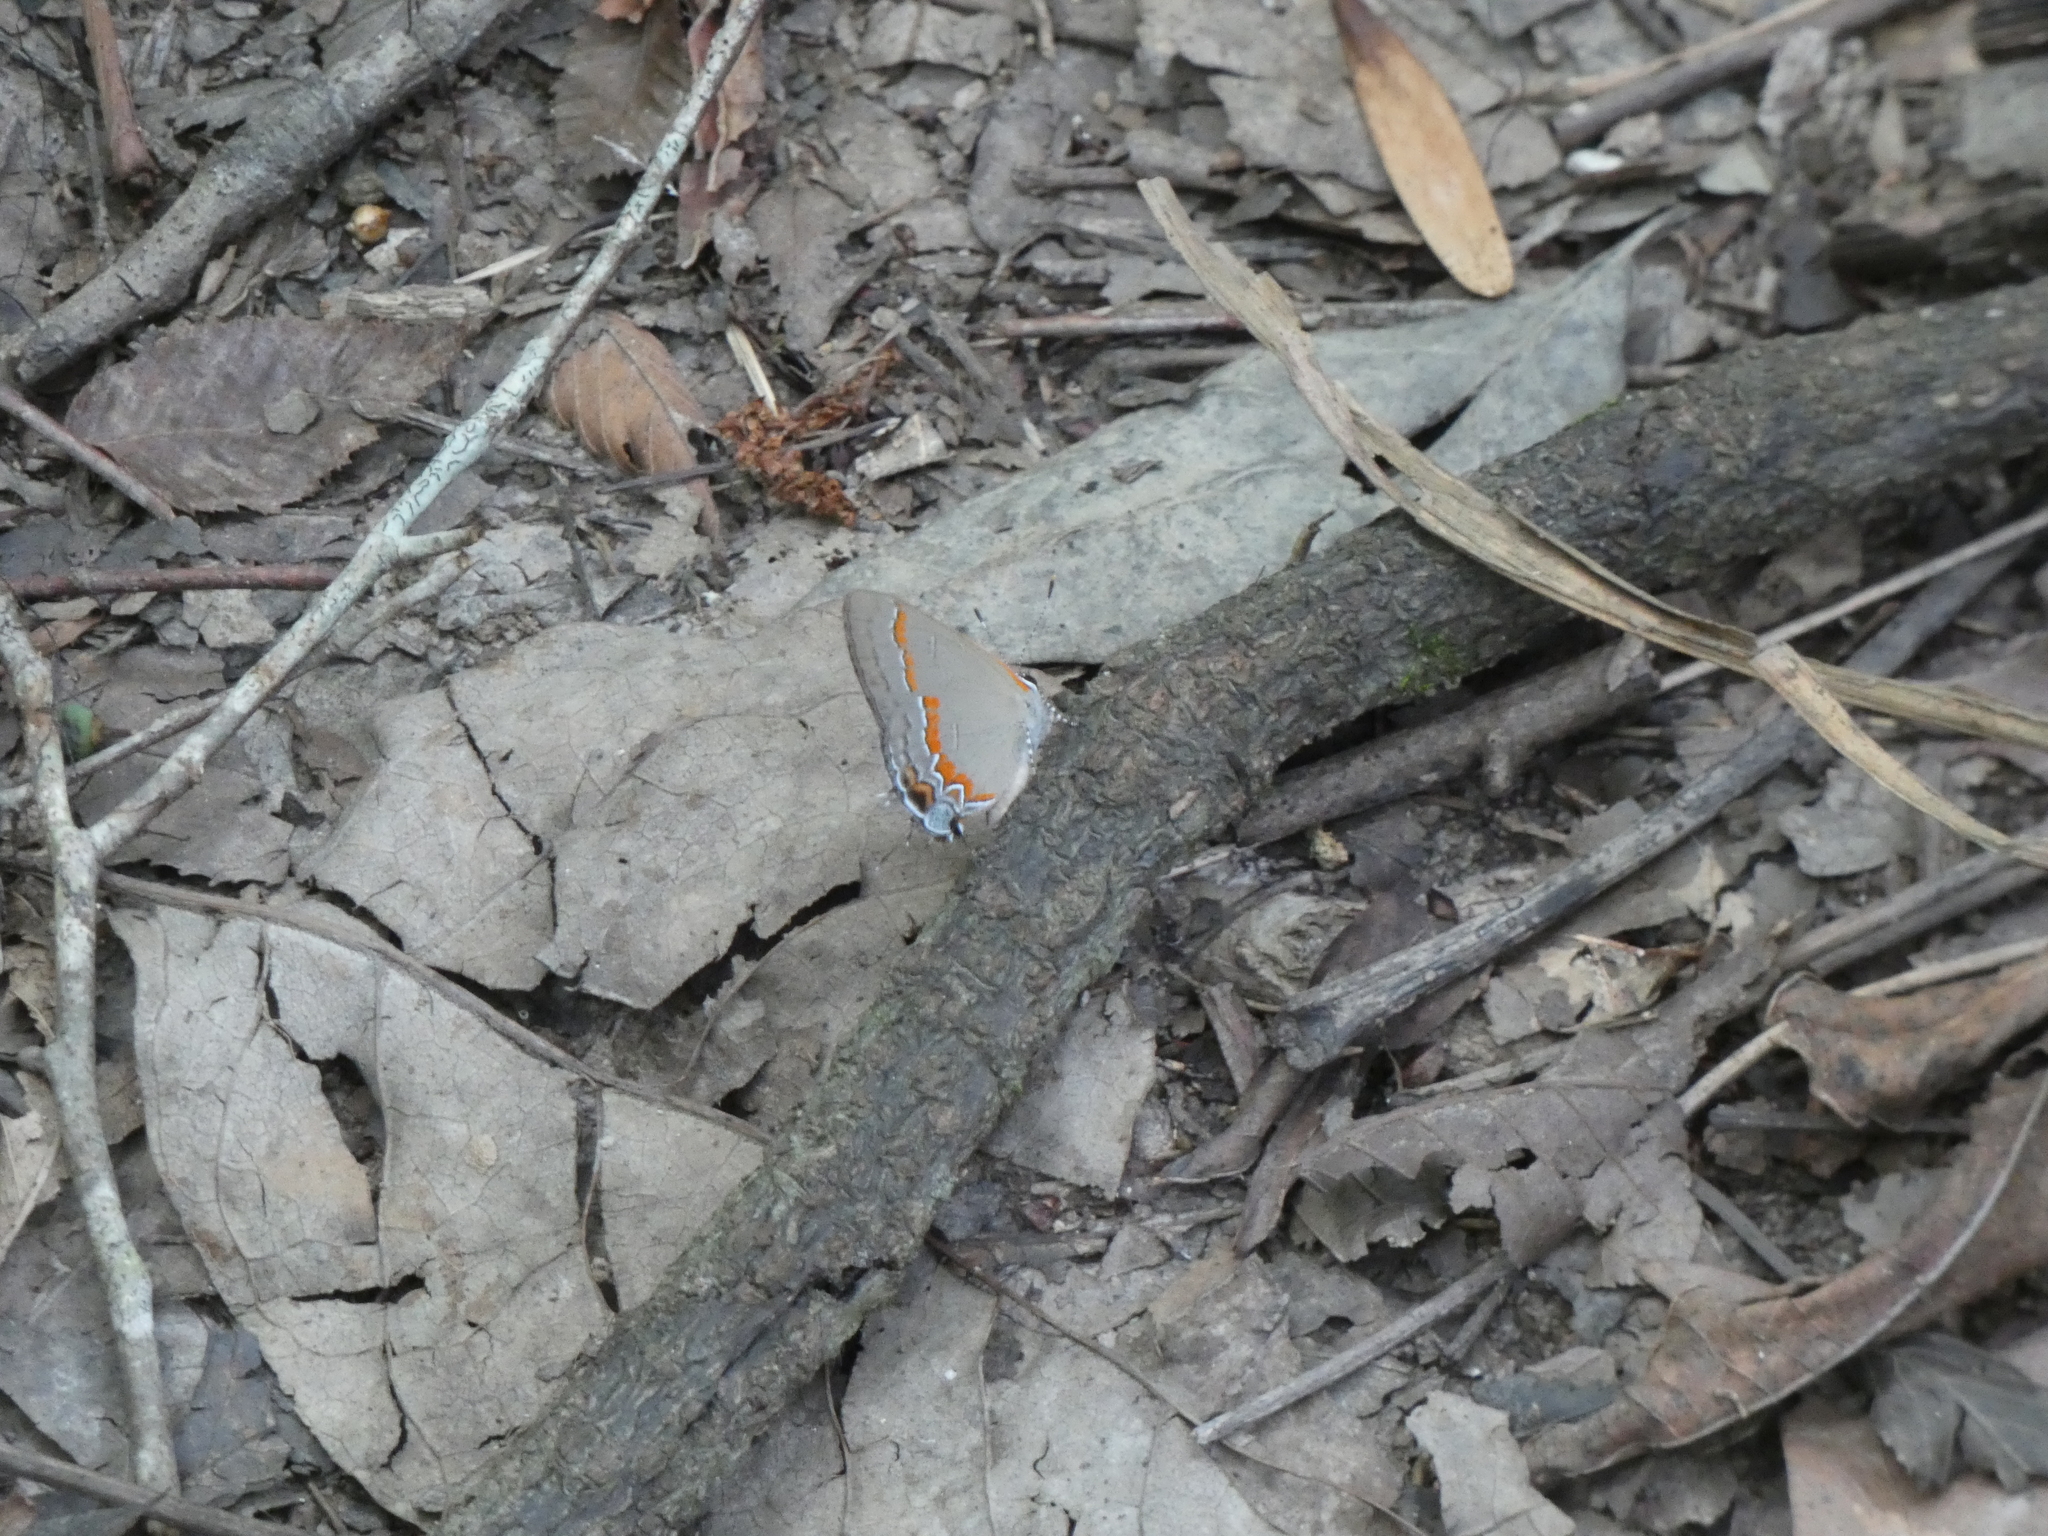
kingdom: Animalia
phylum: Arthropoda
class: Insecta
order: Lepidoptera
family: Lycaenidae
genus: Calycopis
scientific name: Calycopis cecrops
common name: Red-banded hairstreak
